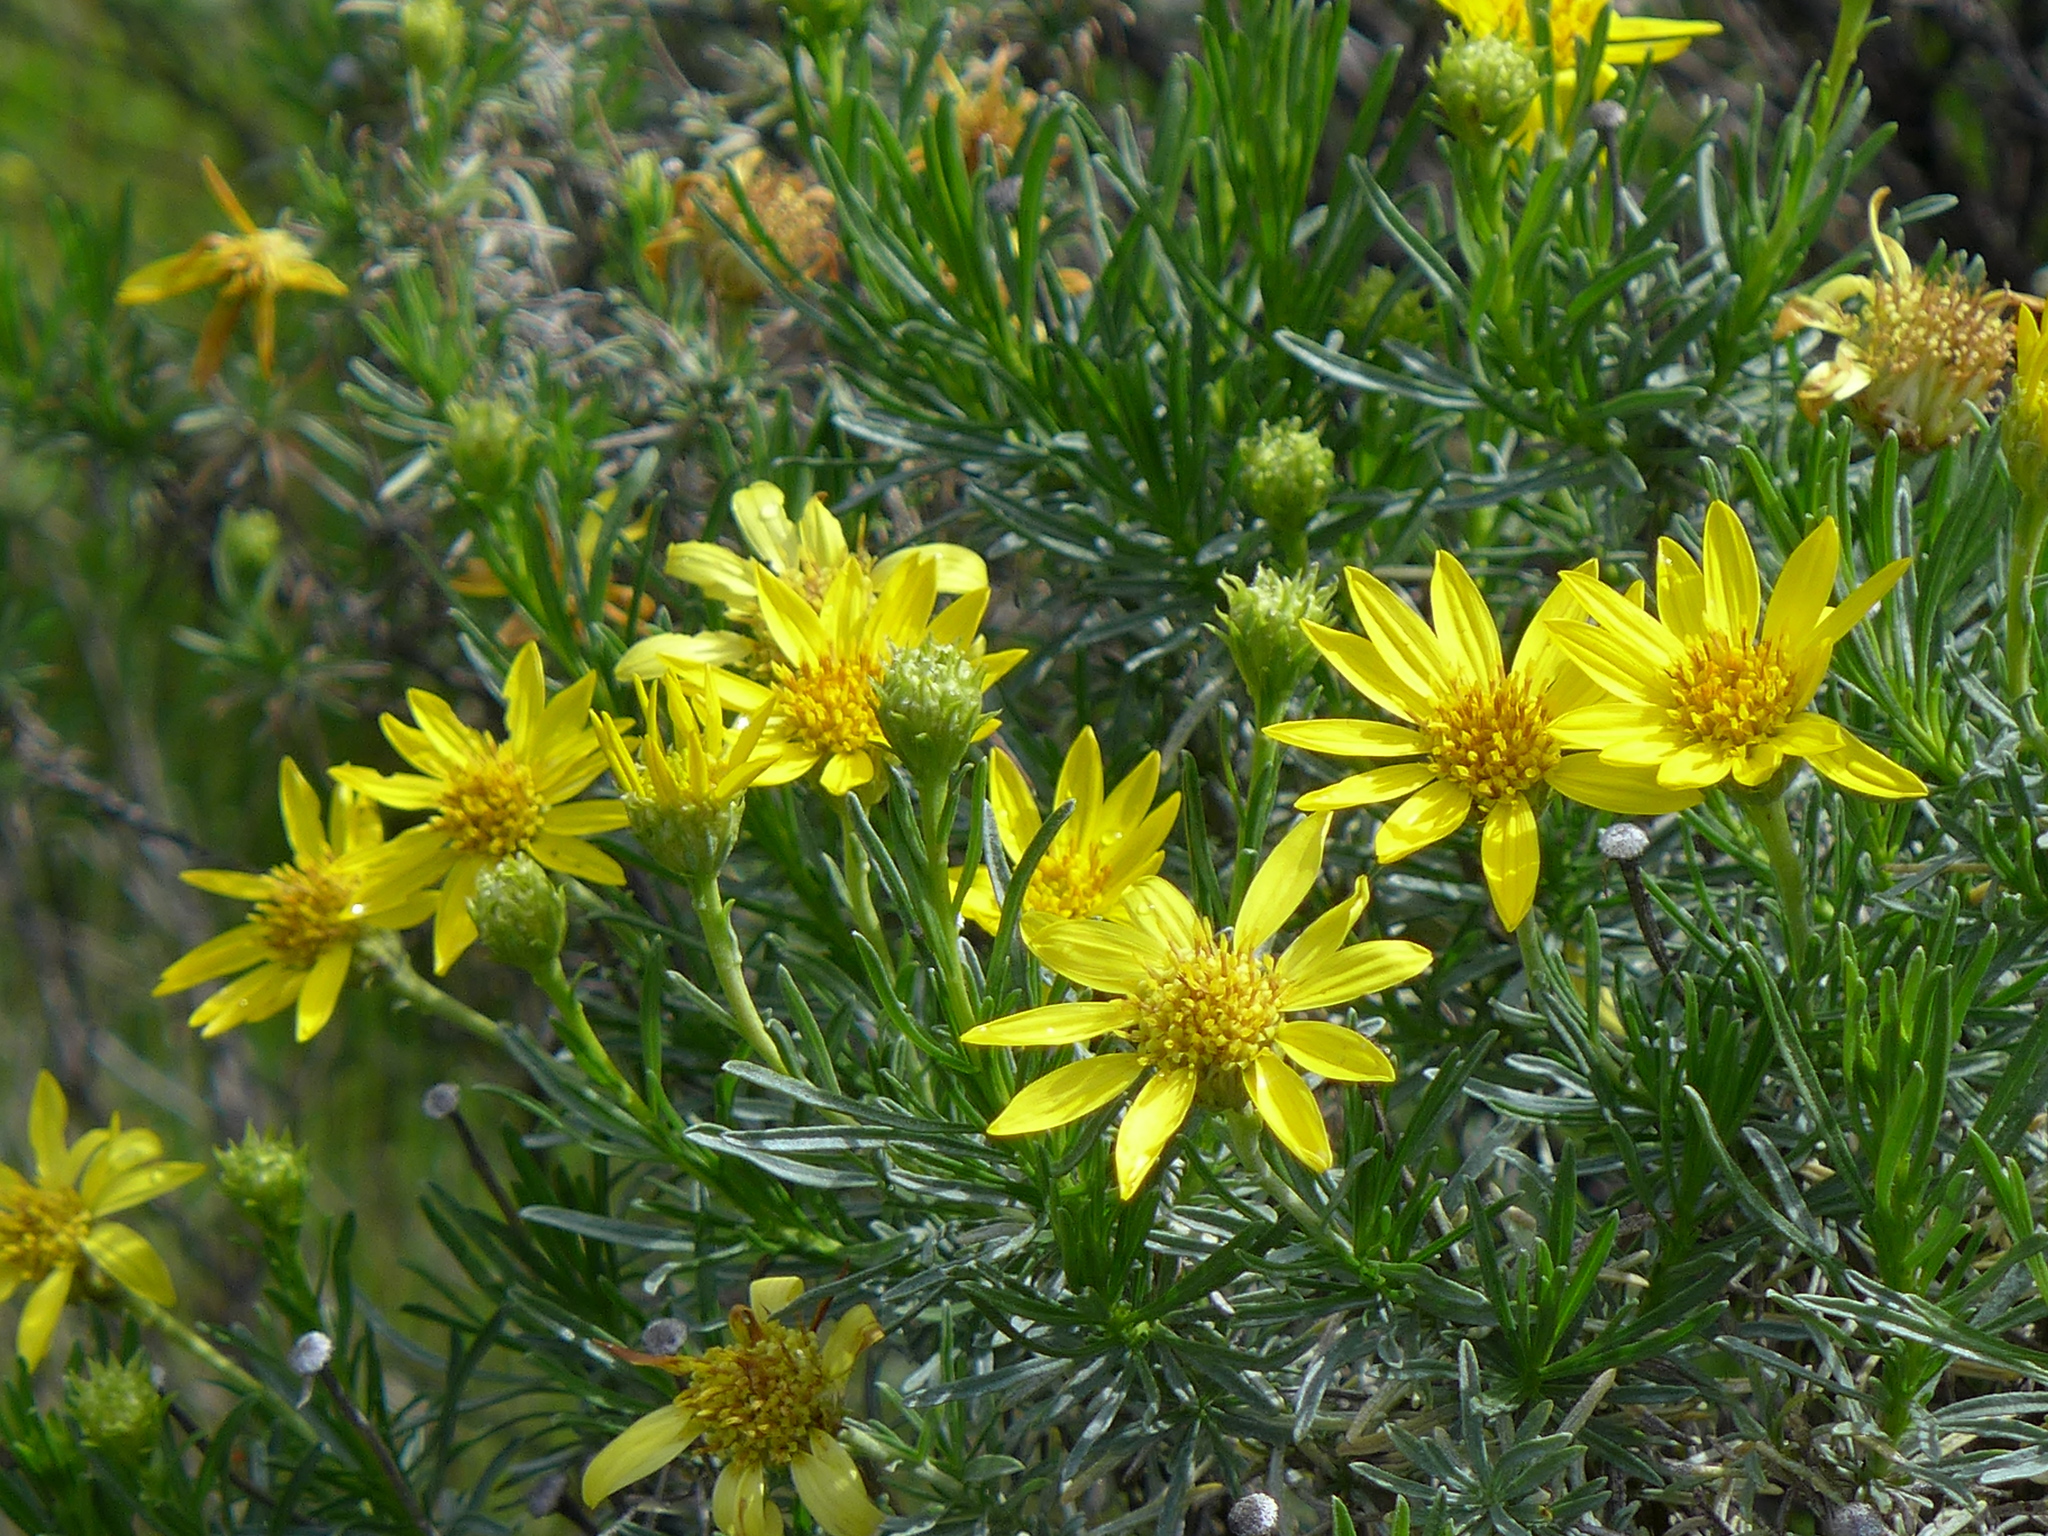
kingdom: Plantae
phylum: Tracheophyta
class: Magnoliopsida
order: Asterales
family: Asteraceae
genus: Ericameria
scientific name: Ericameria linearifolia
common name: Interior goldenbush
